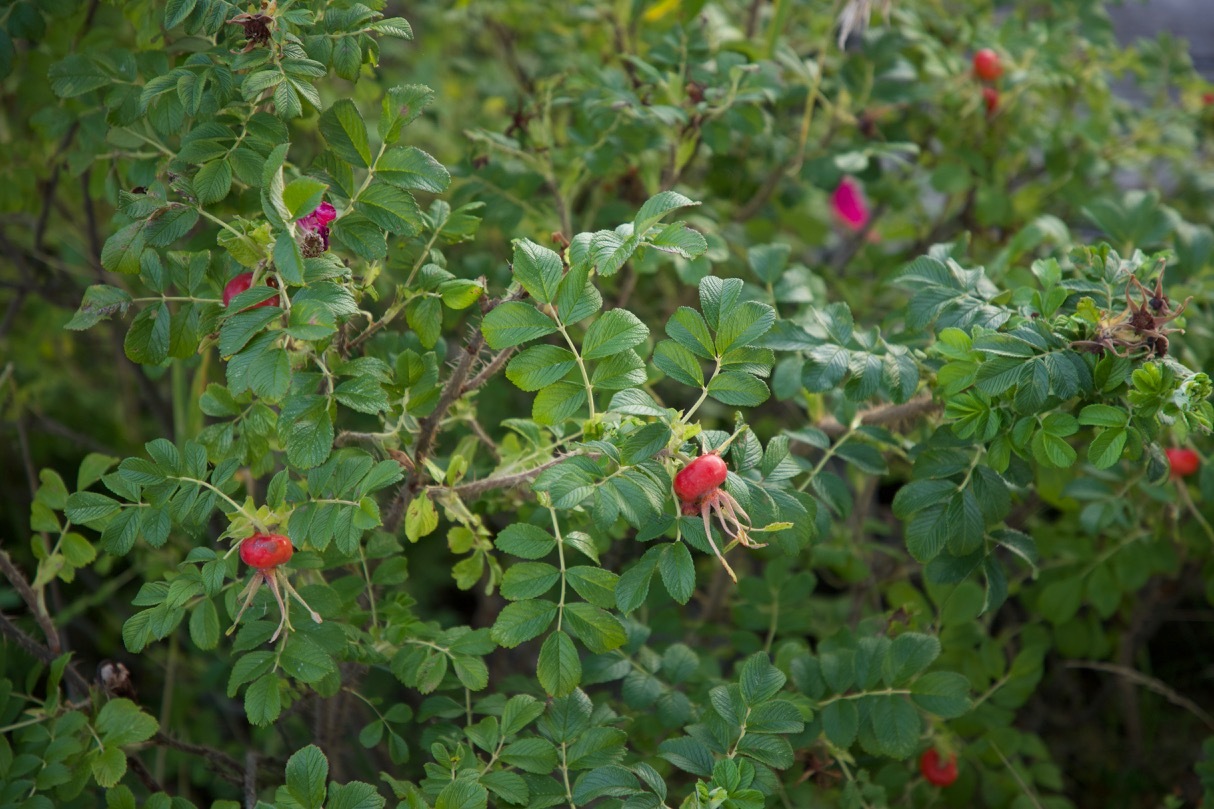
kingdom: Plantae
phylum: Tracheophyta
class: Magnoliopsida
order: Rosales
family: Rosaceae
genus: Rosa
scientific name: Rosa rugosa
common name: Japanese rose
